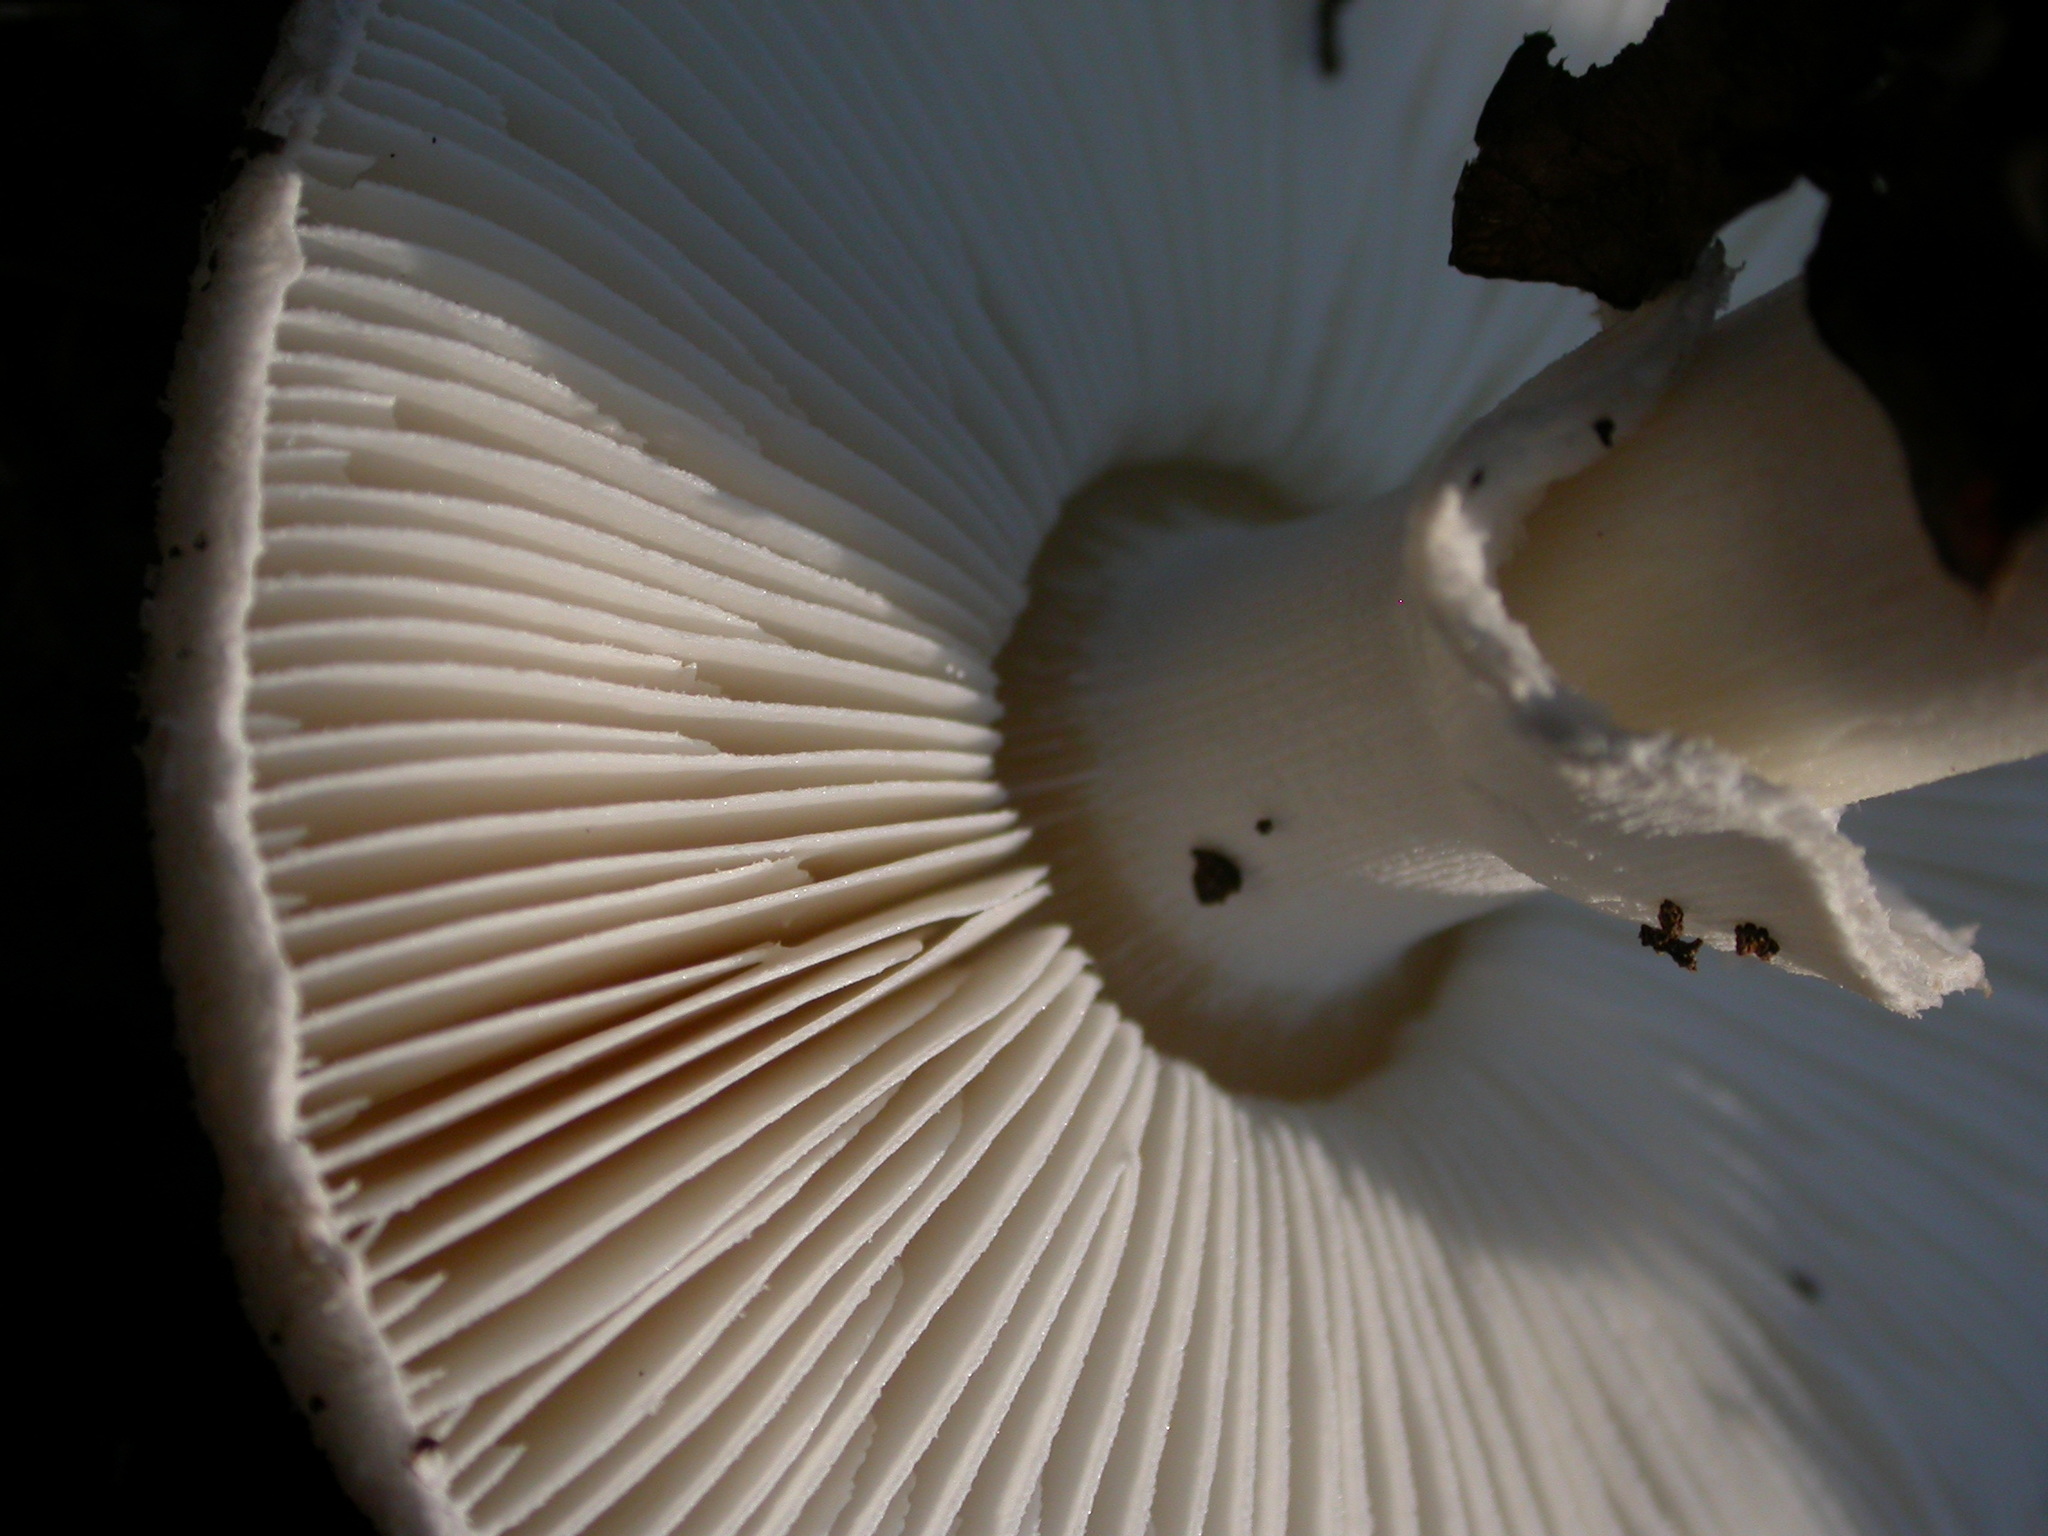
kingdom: Fungi
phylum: Basidiomycota
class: Agaricomycetes
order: Agaricales
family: Amanitaceae
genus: Amanita
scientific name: Amanita citrina
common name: False death-cap
